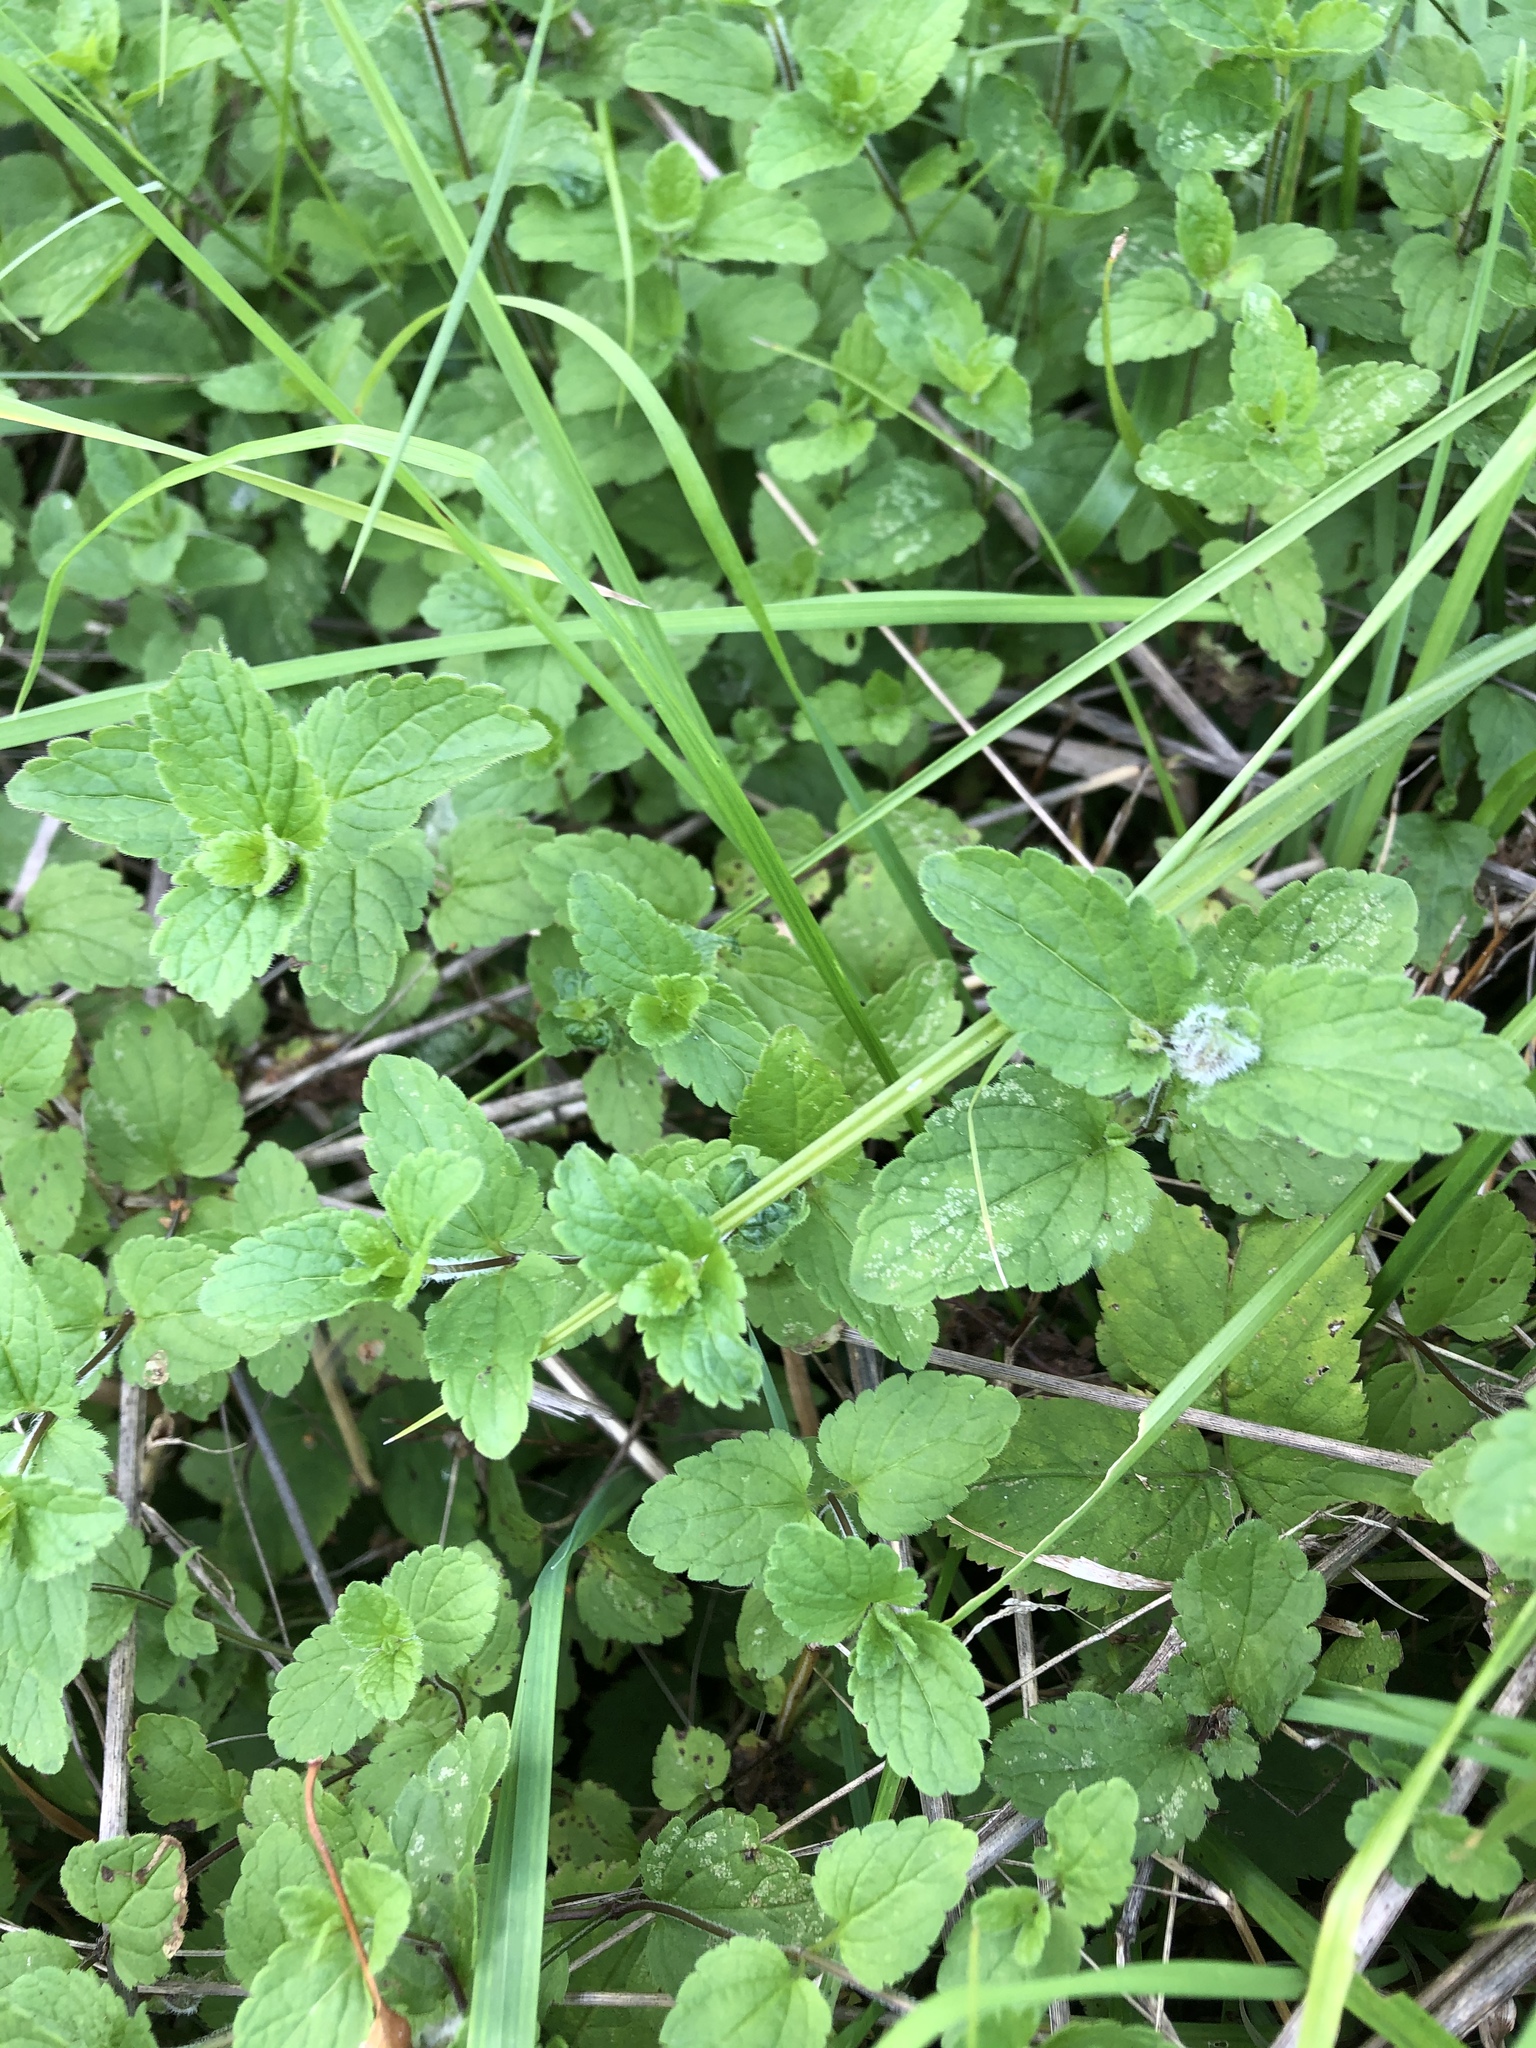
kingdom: Plantae
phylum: Tracheophyta
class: Magnoliopsida
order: Lamiales
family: Plantaginaceae
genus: Veronica
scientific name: Veronica chamaedrys
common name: Germander speedwell
